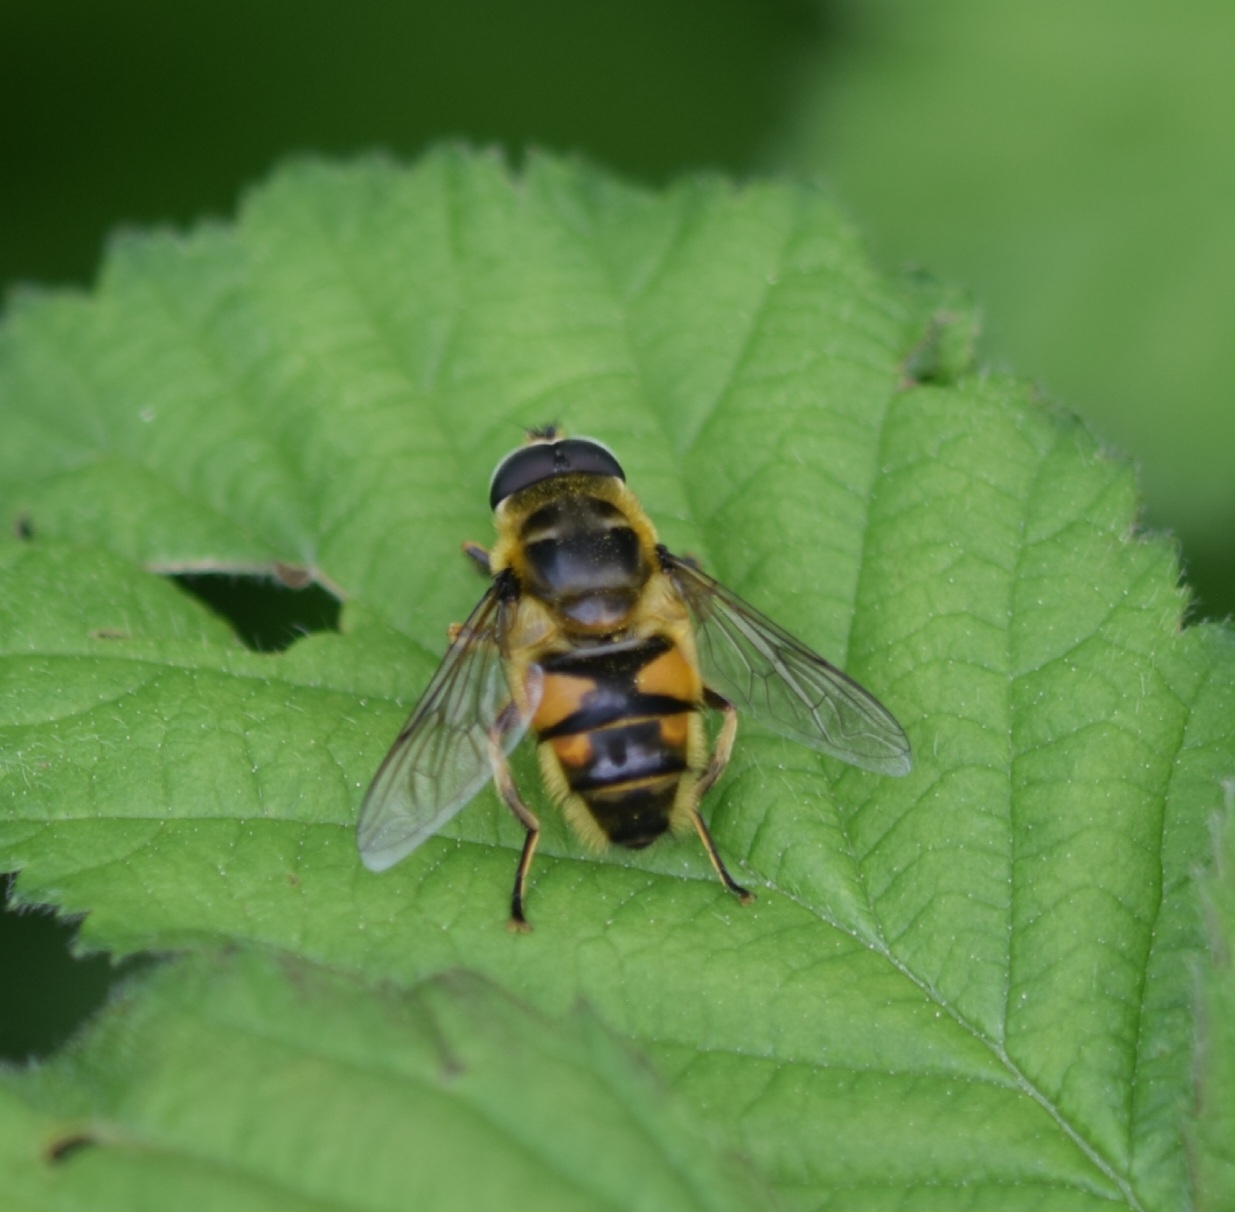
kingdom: Animalia
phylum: Arthropoda
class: Insecta
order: Diptera
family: Syrphidae
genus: Myathropa
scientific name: Myathropa florea
